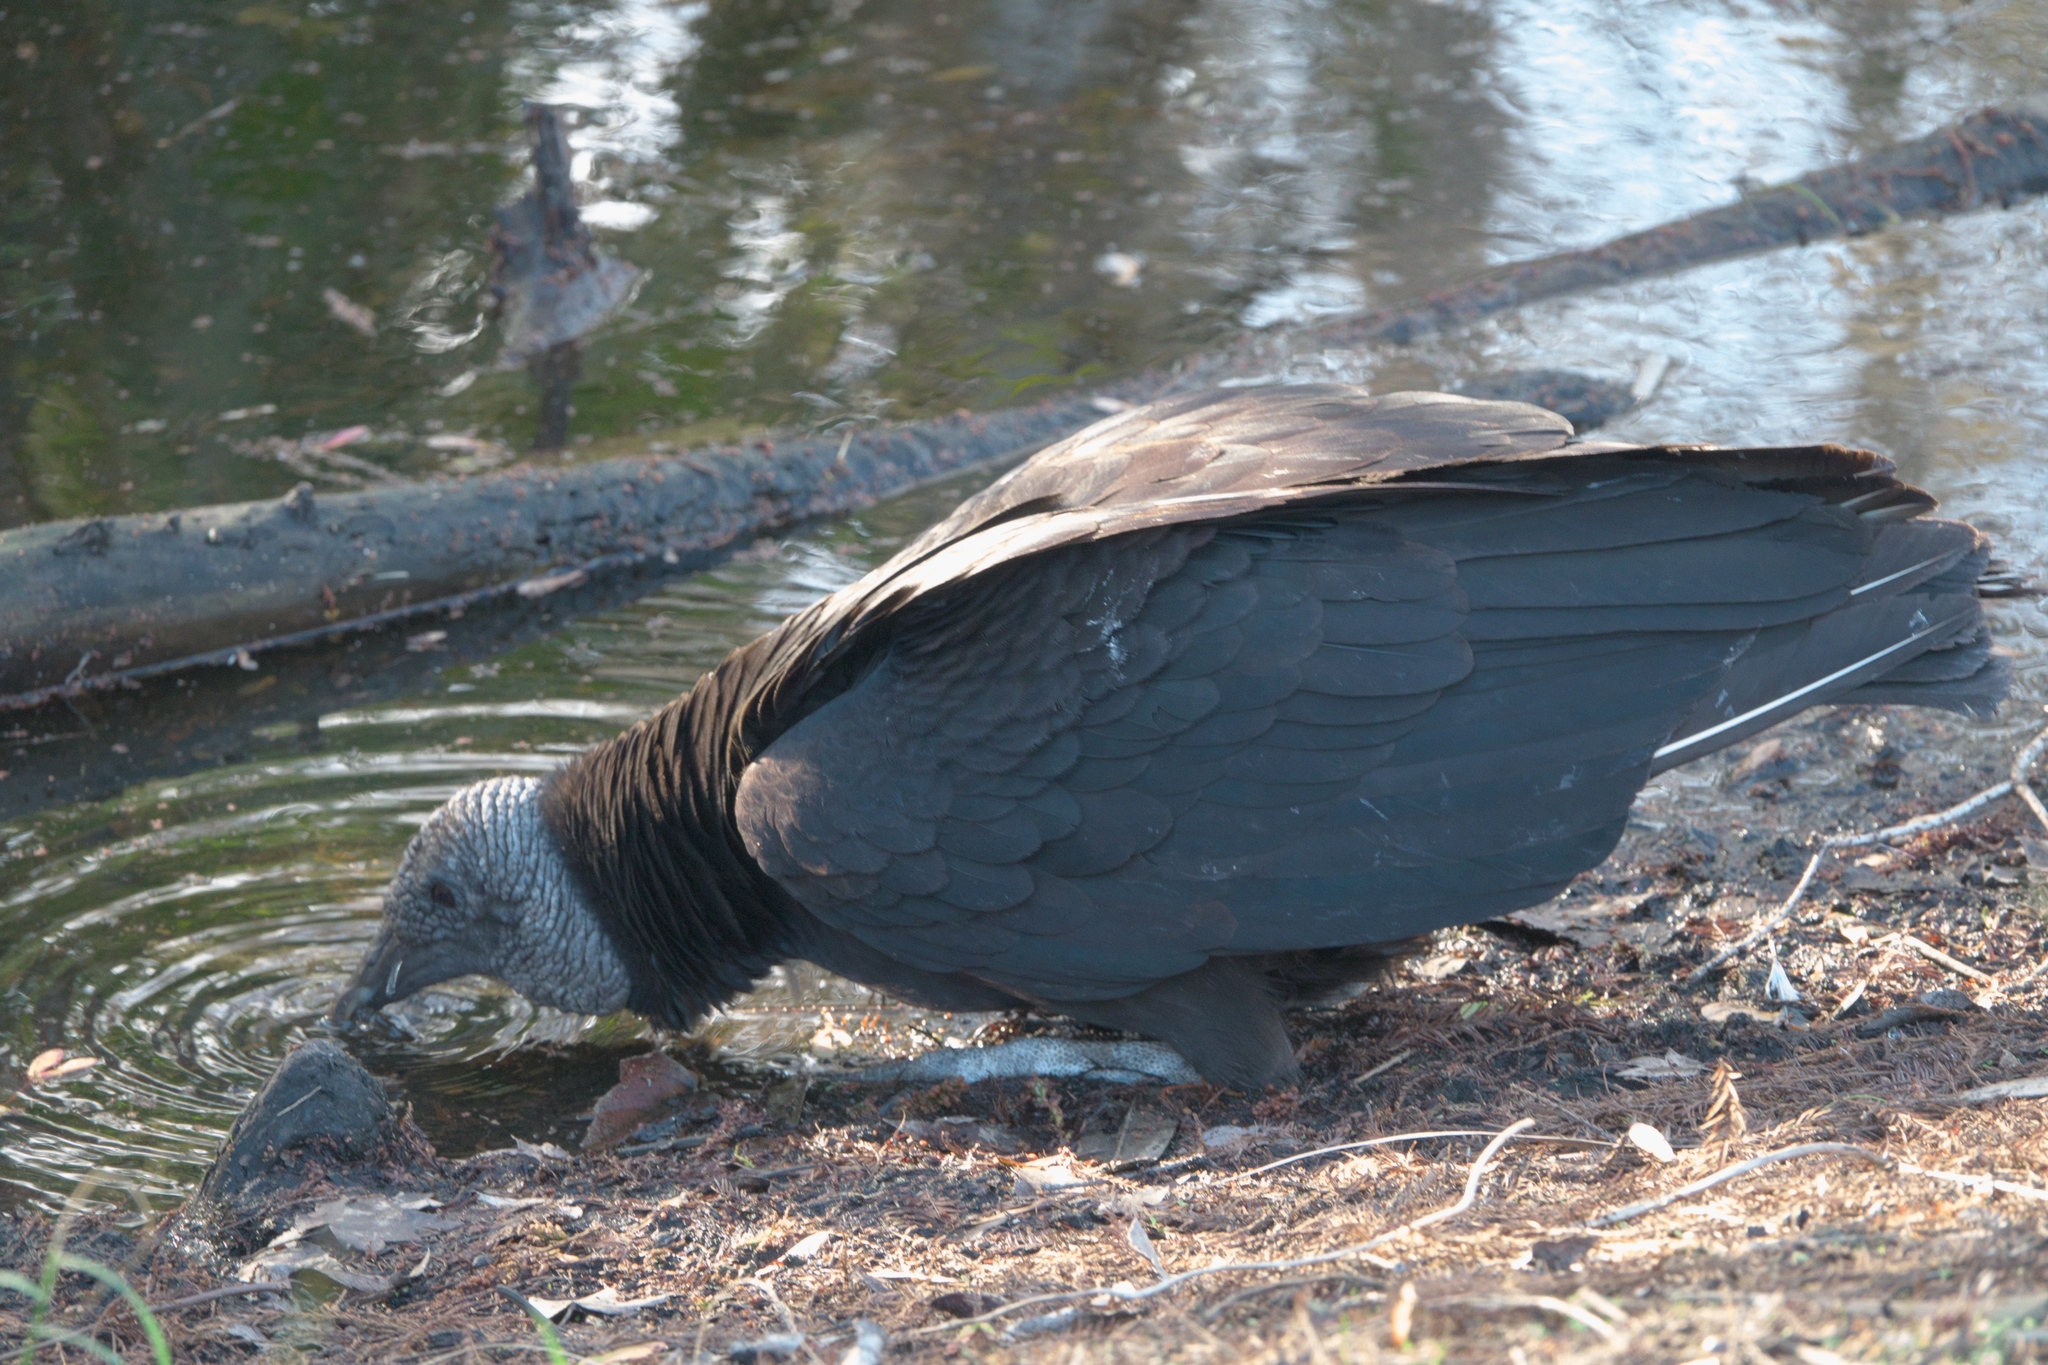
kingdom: Animalia
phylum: Chordata
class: Aves
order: Accipitriformes
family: Cathartidae
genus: Coragyps
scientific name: Coragyps atratus
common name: Black vulture
